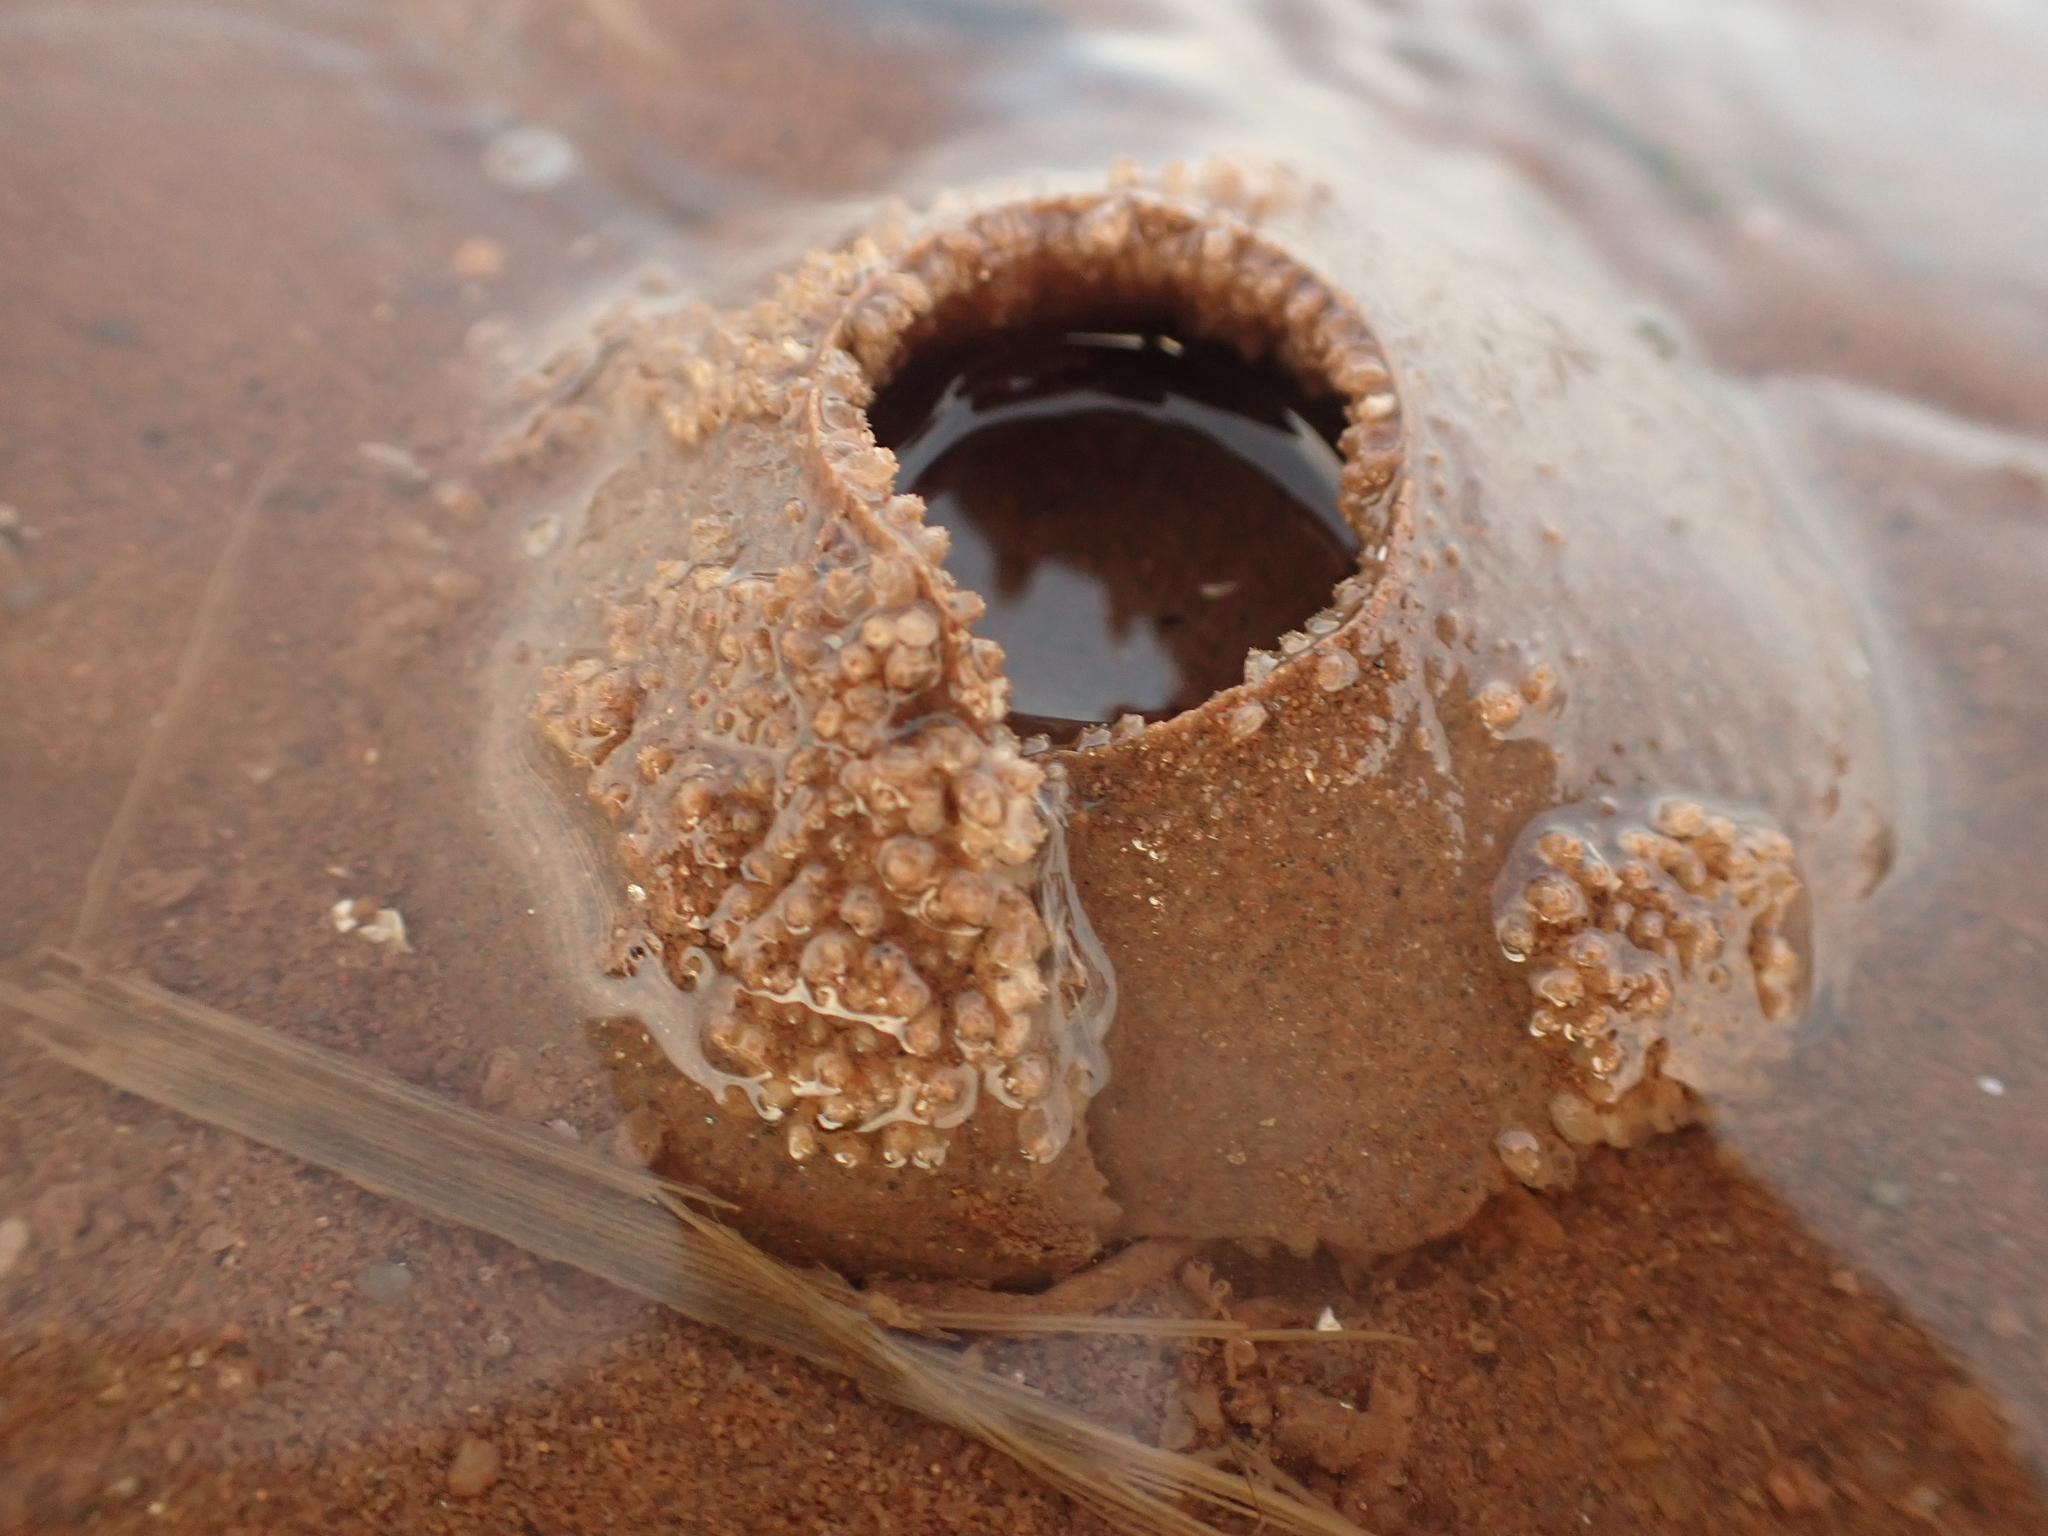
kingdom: Animalia
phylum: Mollusca
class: Gastropoda
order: Littorinimorpha
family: Naticidae
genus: Euspira
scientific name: Euspira heros
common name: Common northern moonsnail
